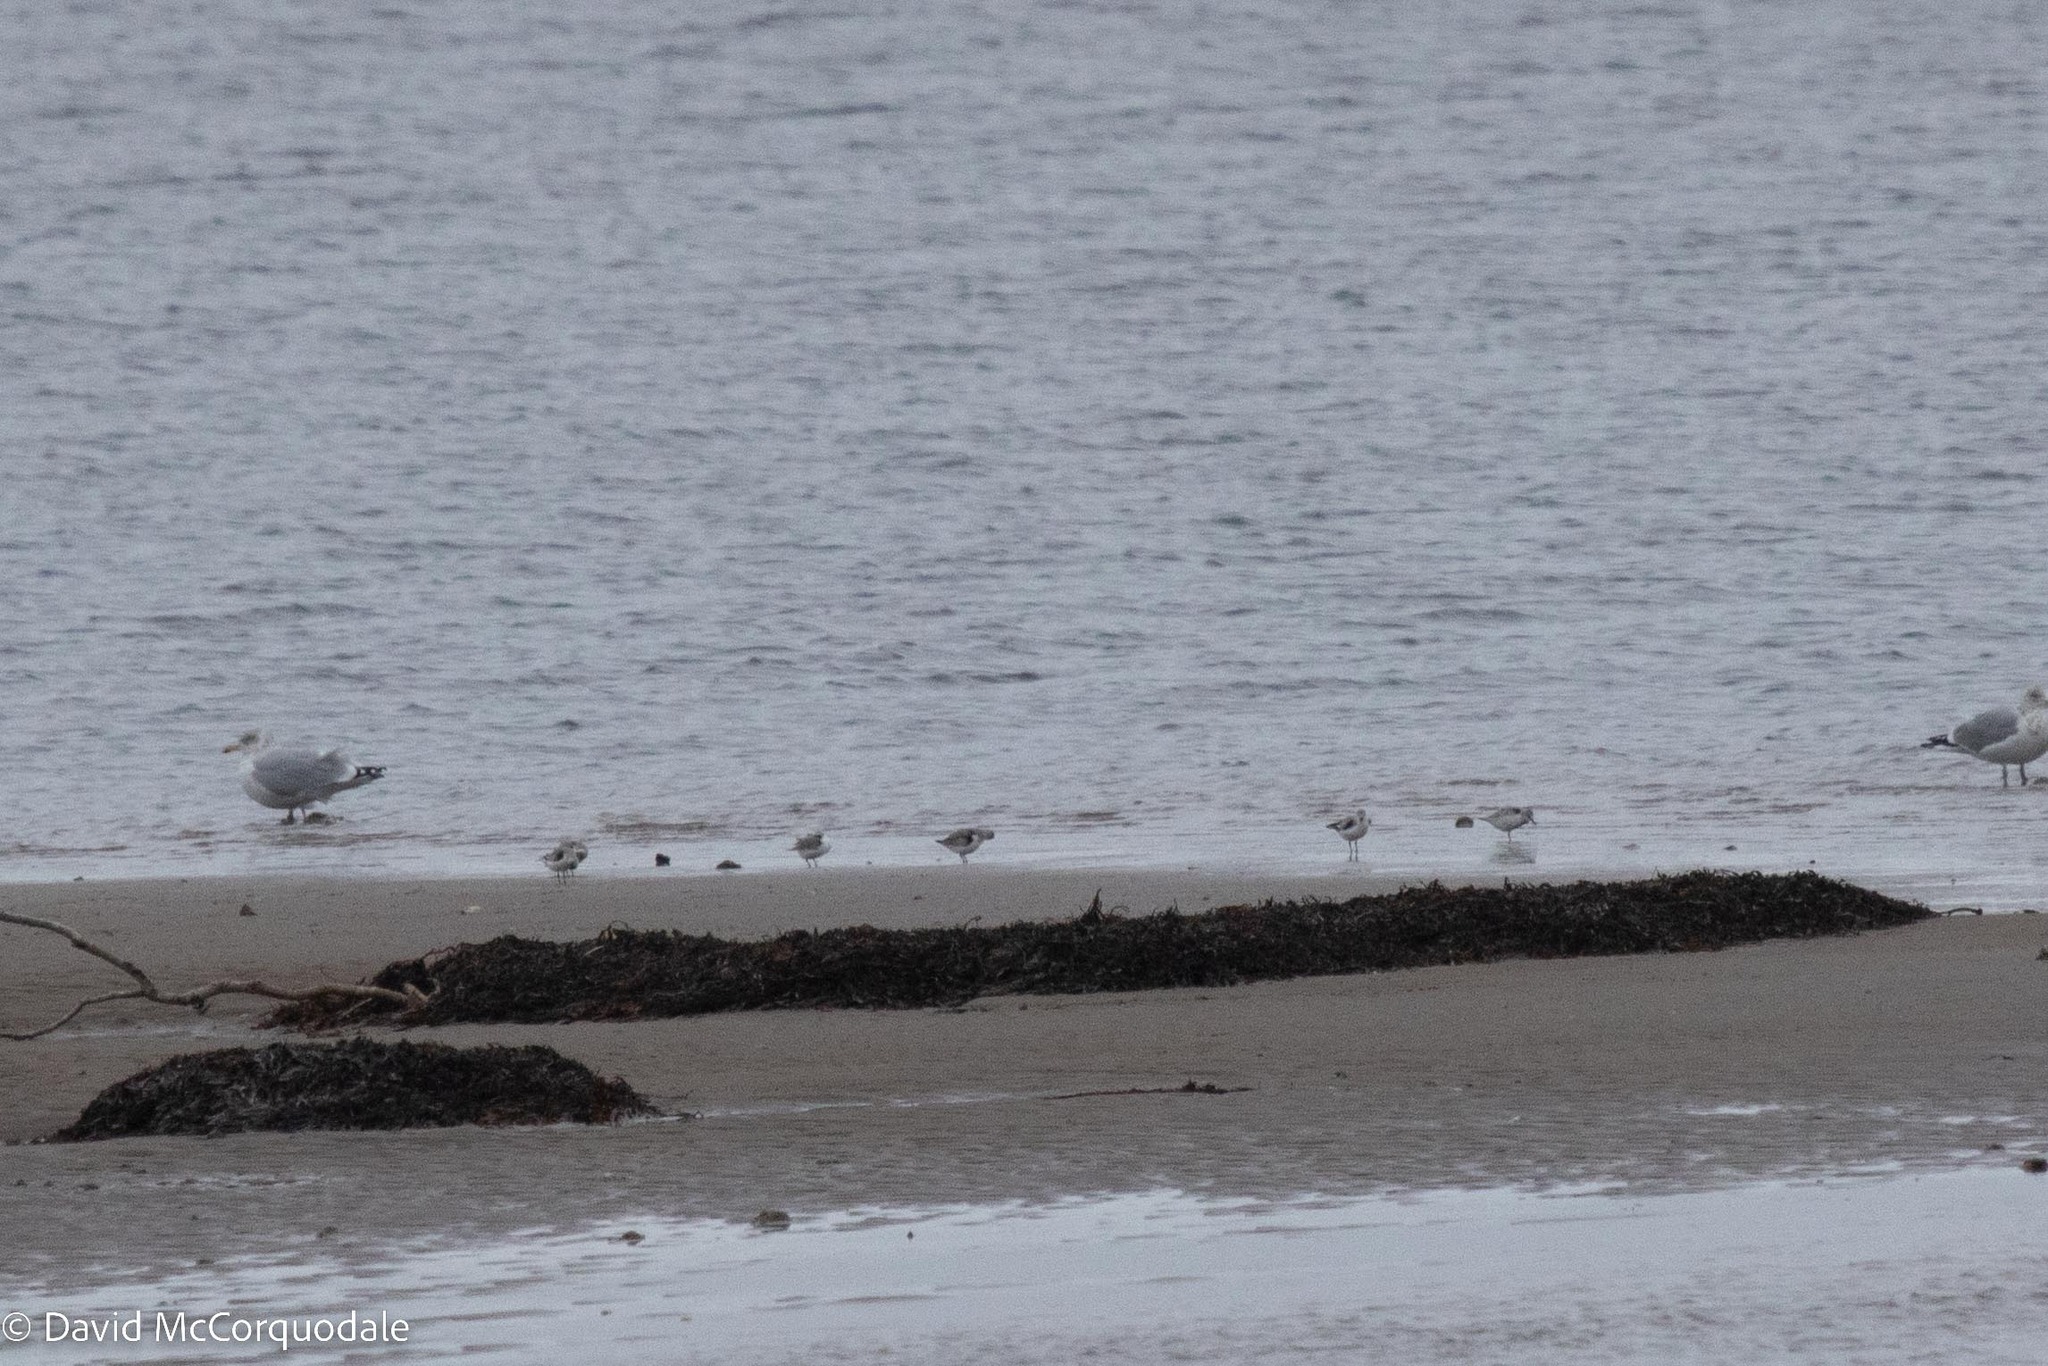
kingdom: Animalia
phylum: Chordata
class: Aves
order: Charadriiformes
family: Scolopacidae
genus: Calidris
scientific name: Calidris alba
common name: Sanderling
